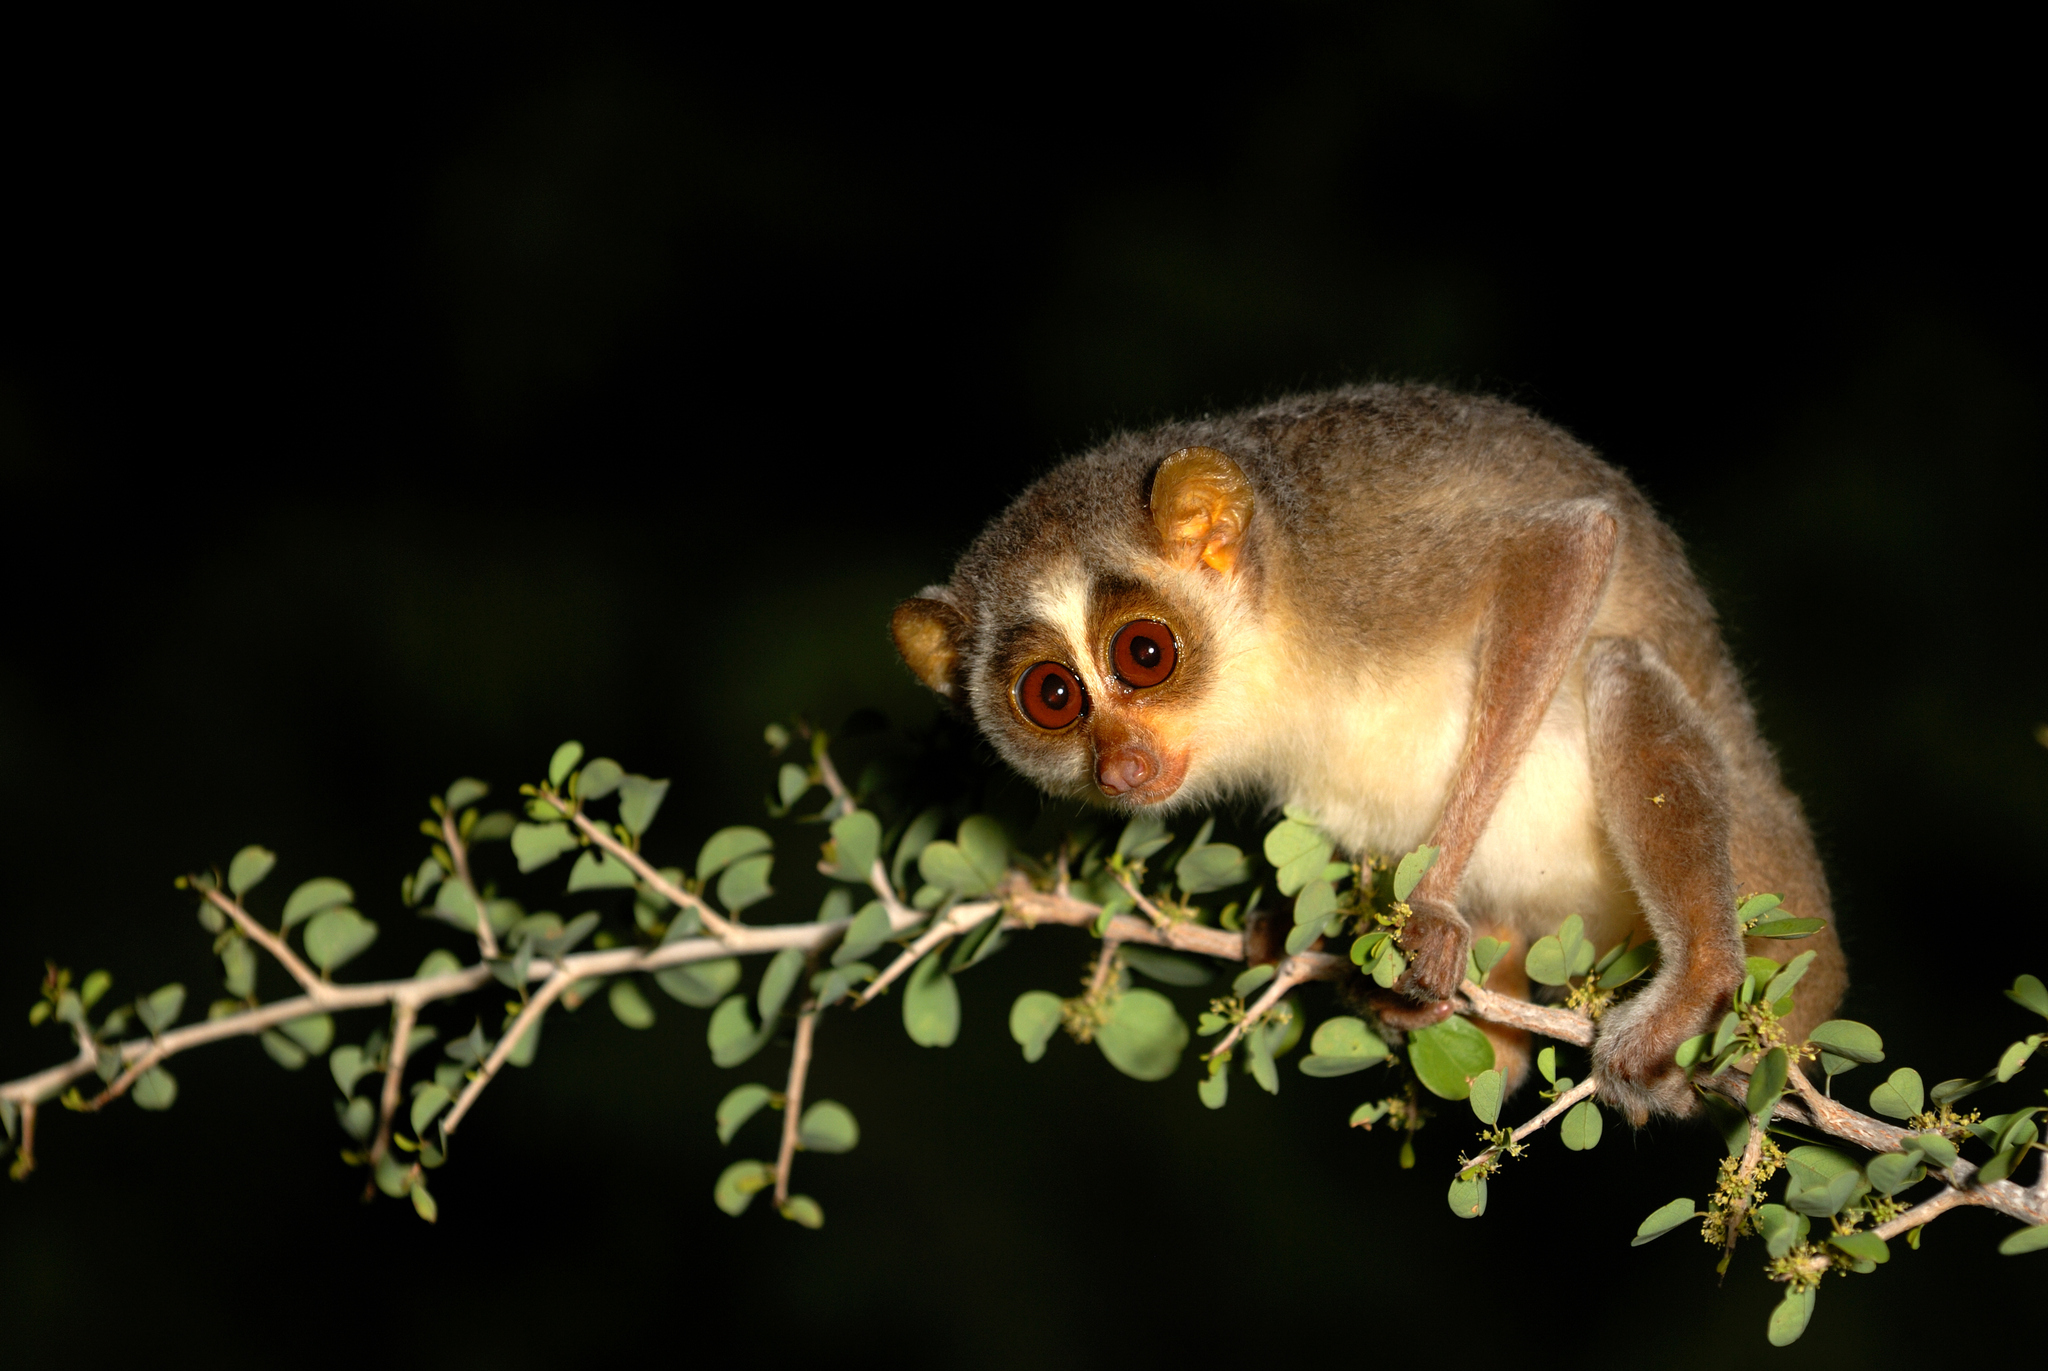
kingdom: Animalia
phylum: Chordata
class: Mammalia
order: Primates
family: Lorisidae
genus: Loris
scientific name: Loris lydekkerianus
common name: Gray slender loris
